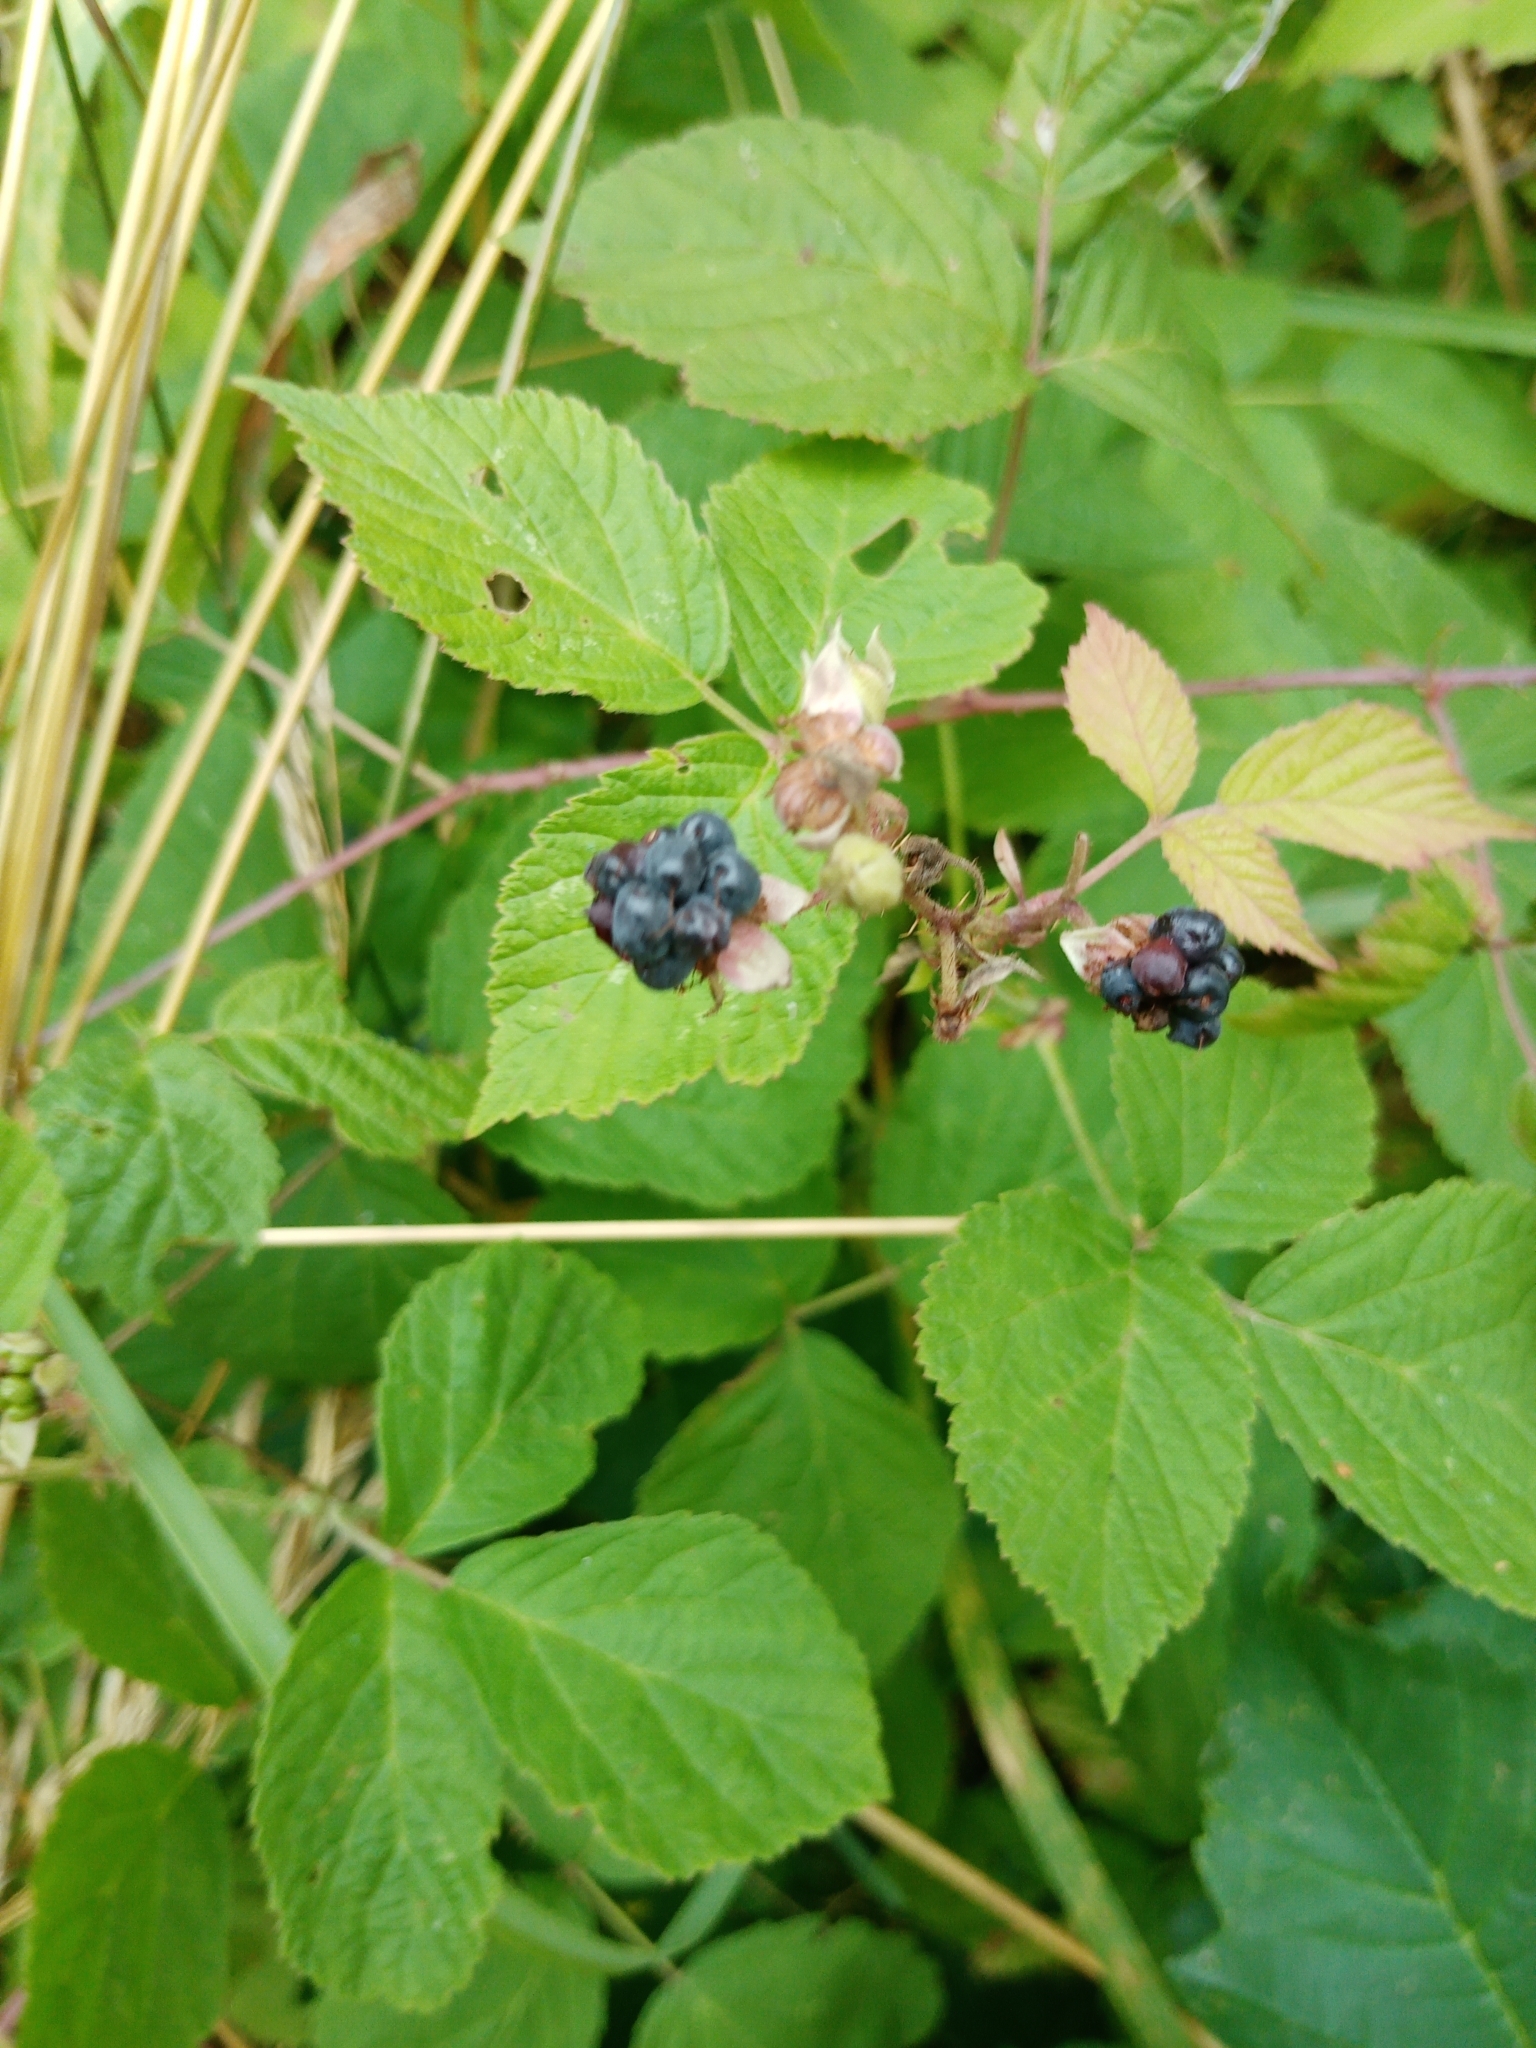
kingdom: Plantae
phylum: Tracheophyta
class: Magnoliopsida
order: Rosales
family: Rosaceae
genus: Rubus
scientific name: Rubus caesius
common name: Dewberry
